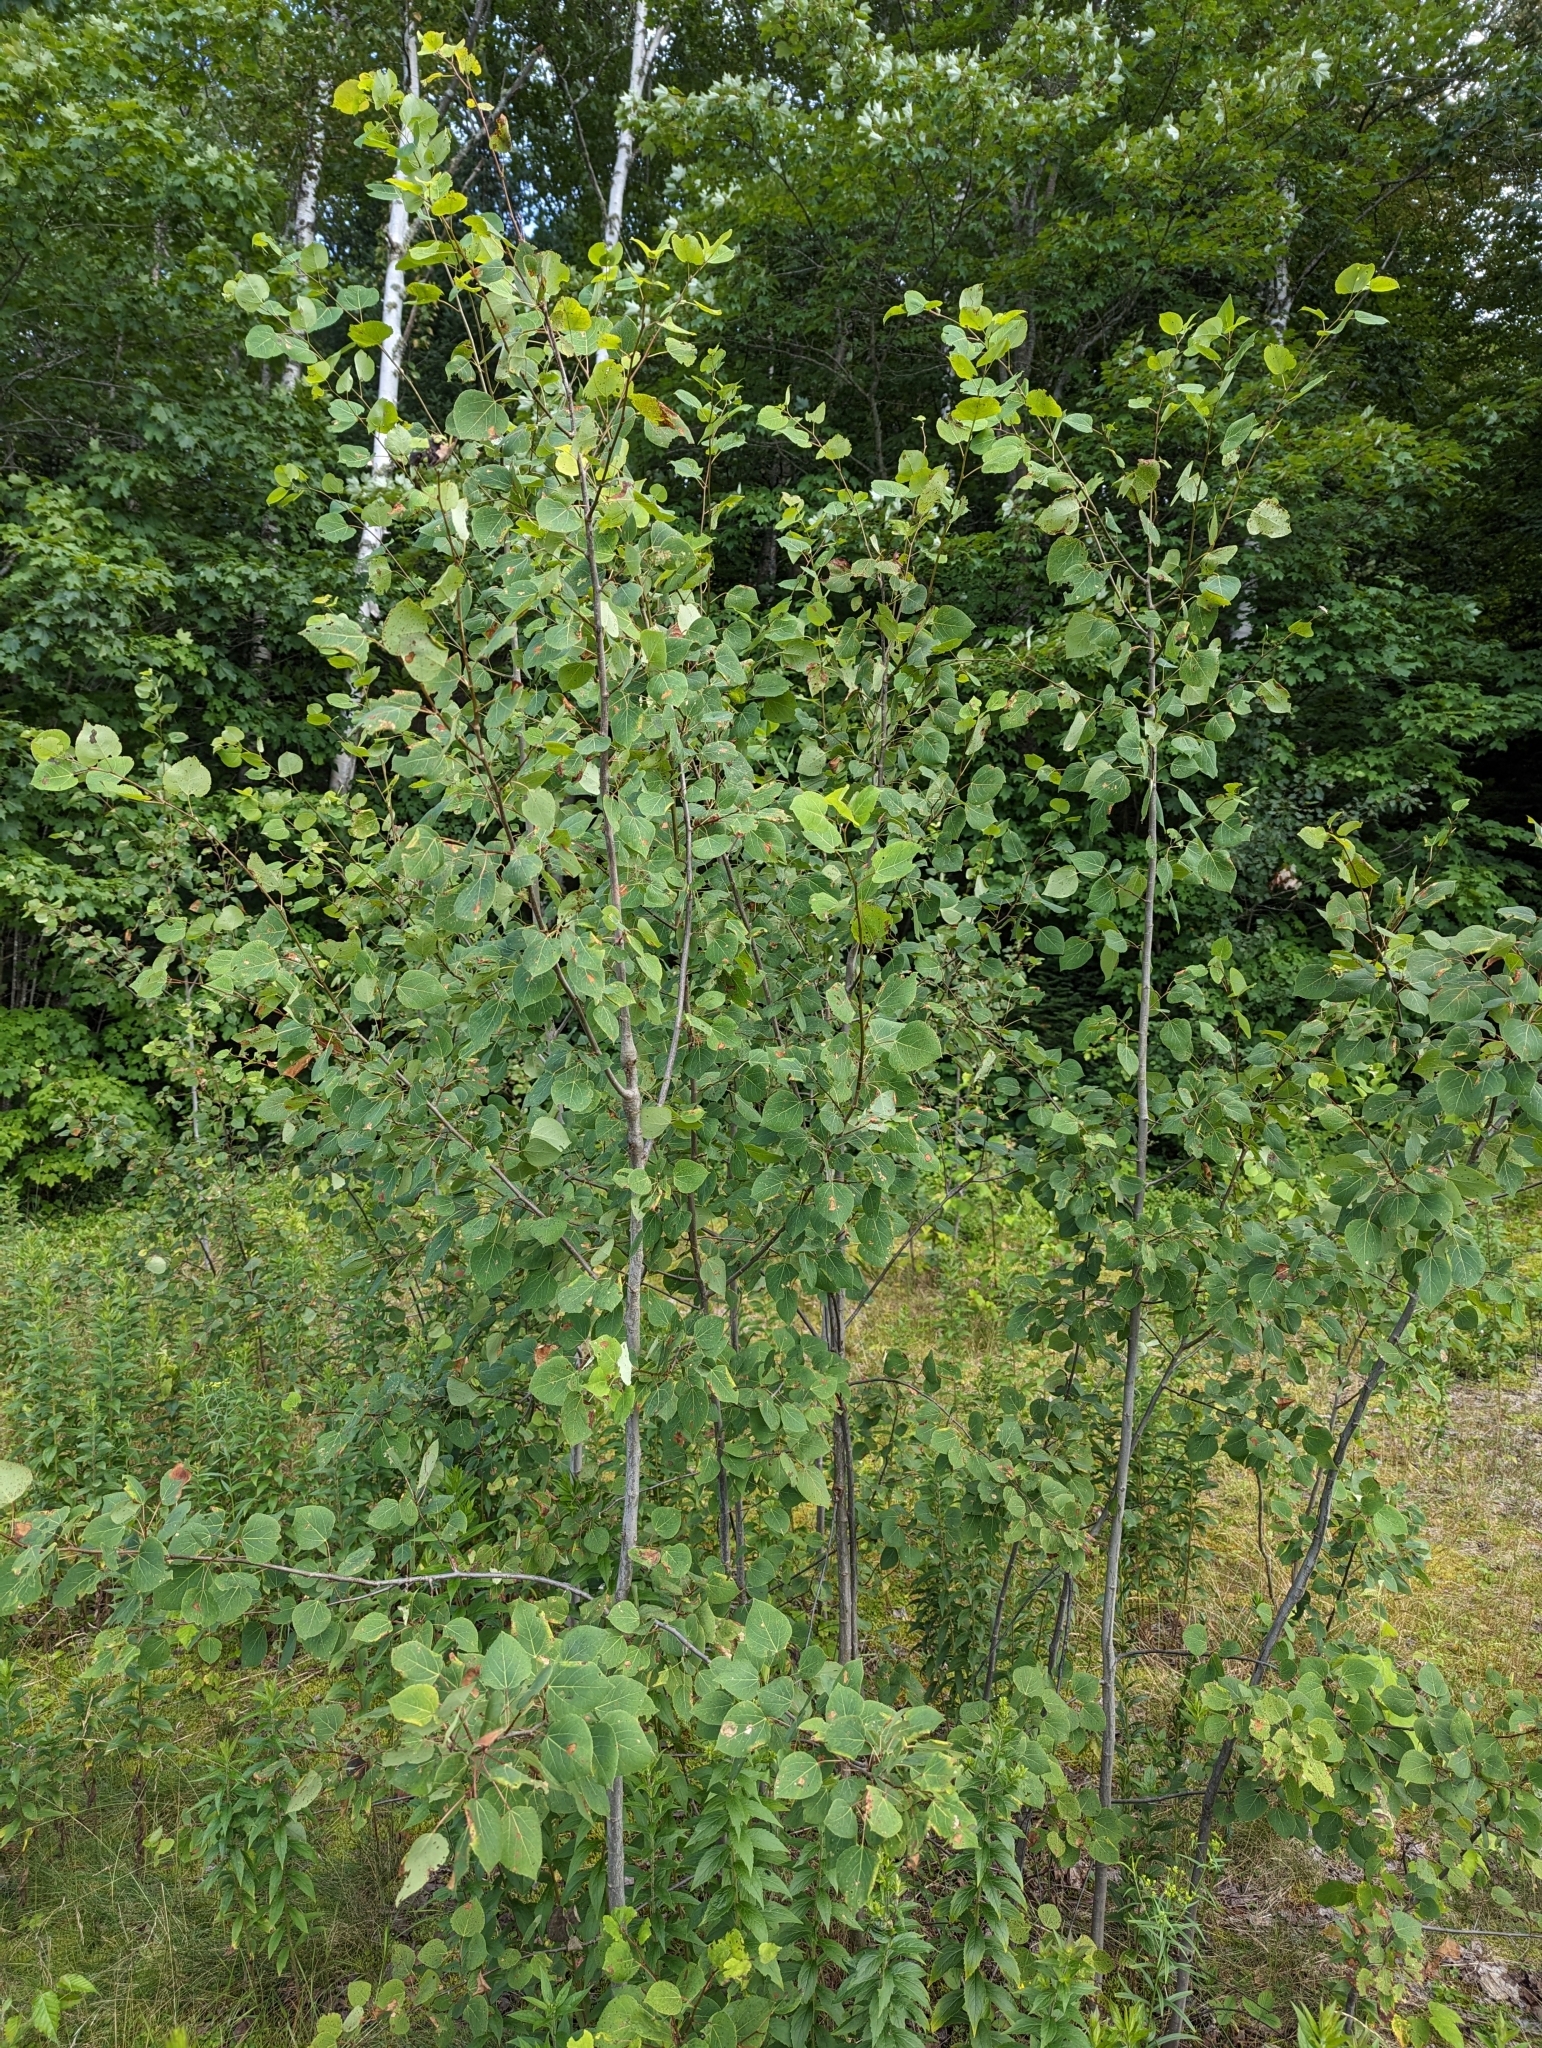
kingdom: Plantae
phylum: Tracheophyta
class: Magnoliopsida
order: Malpighiales
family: Salicaceae
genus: Populus
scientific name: Populus tremuloides
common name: Quaking aspen
